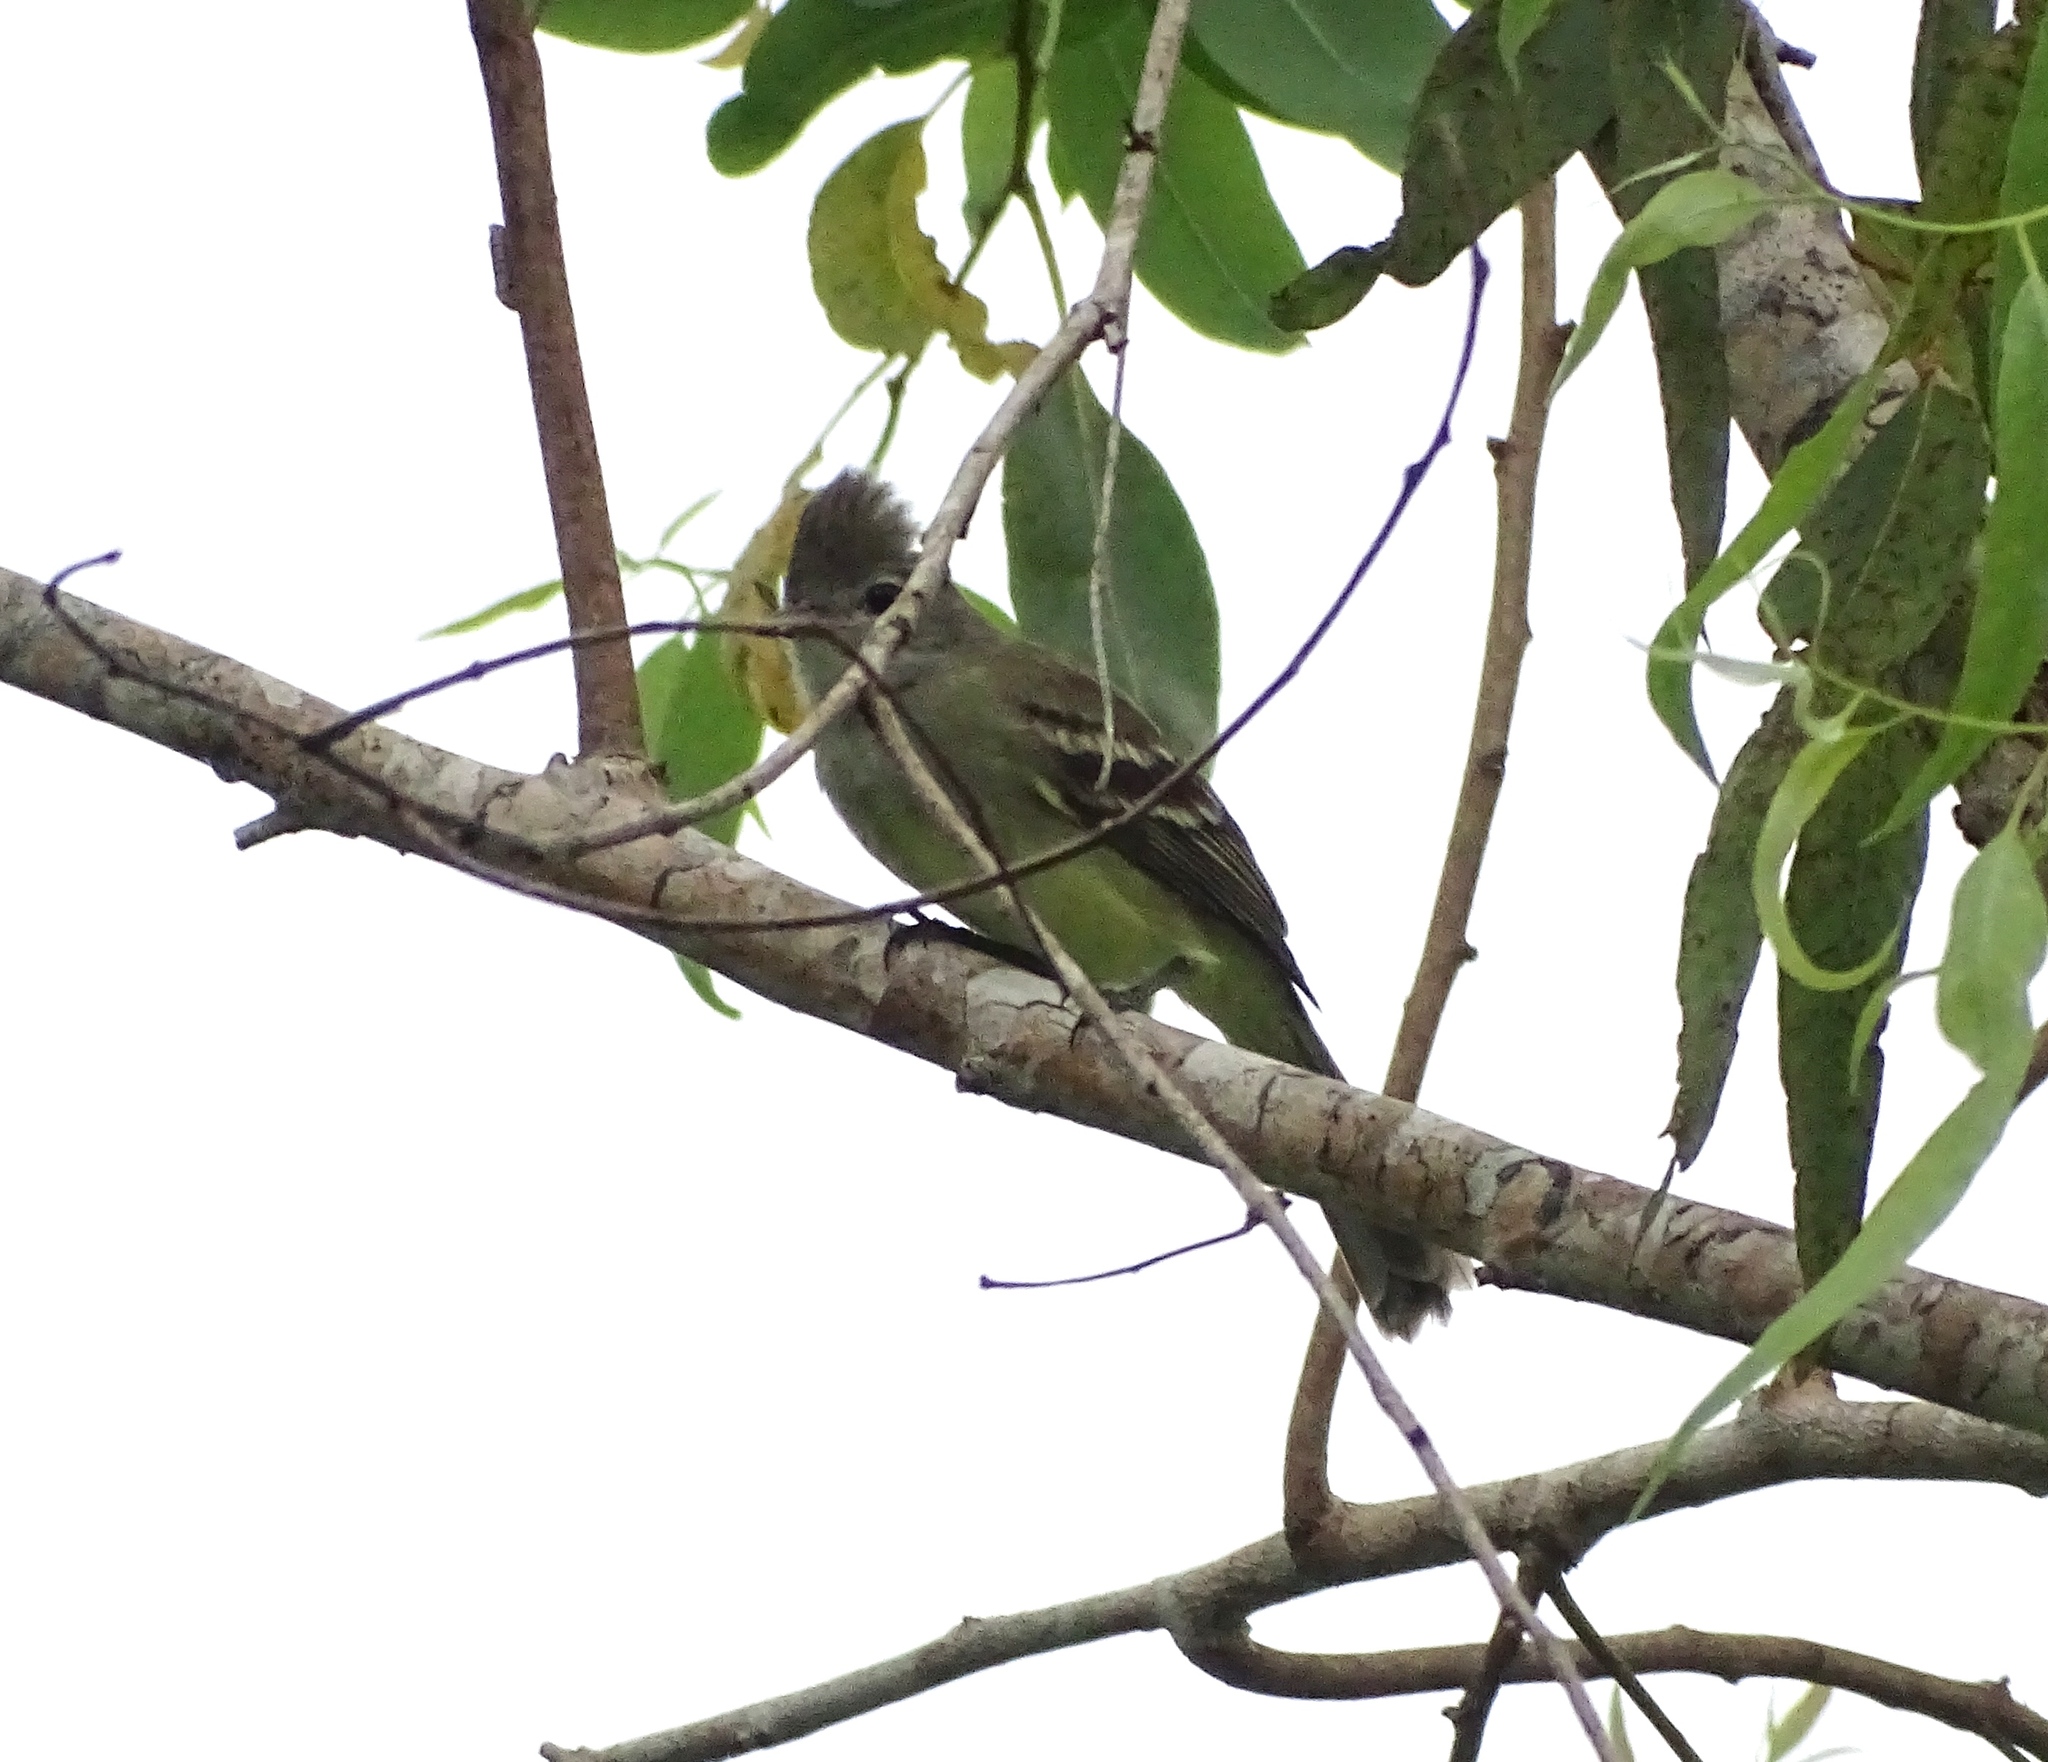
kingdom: Animalia
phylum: Chordata
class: Aves
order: Passeriformes
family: Tyrannidae
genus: Elaenia
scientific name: Elaenia flavogaster
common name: Yellow-bellied elaenia
